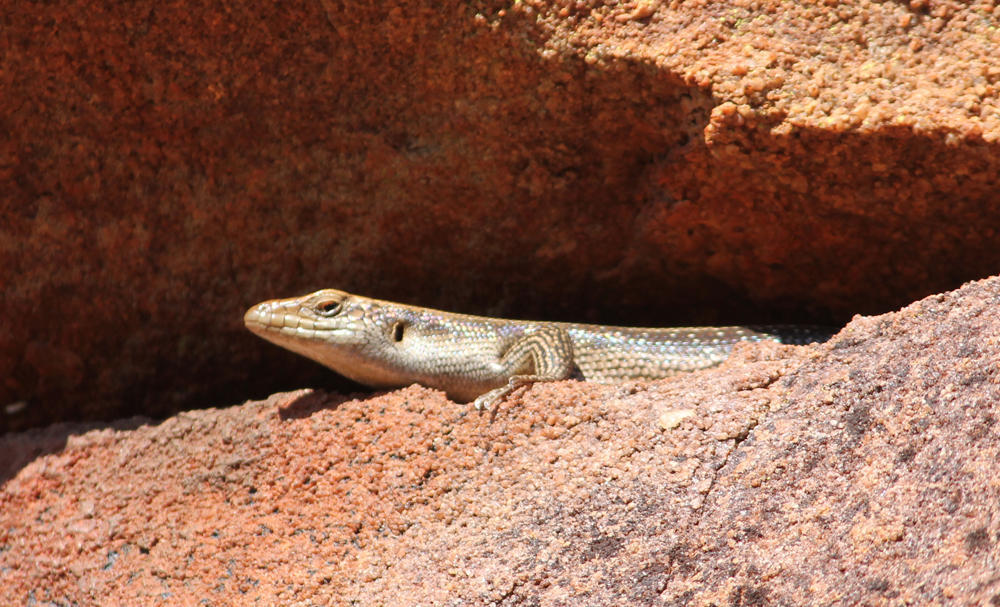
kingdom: Animalia
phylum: Chordata
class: Squamata
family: Scincidae
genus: Trachylepis
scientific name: Trachylepis margaritifera
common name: Rainbow skink
